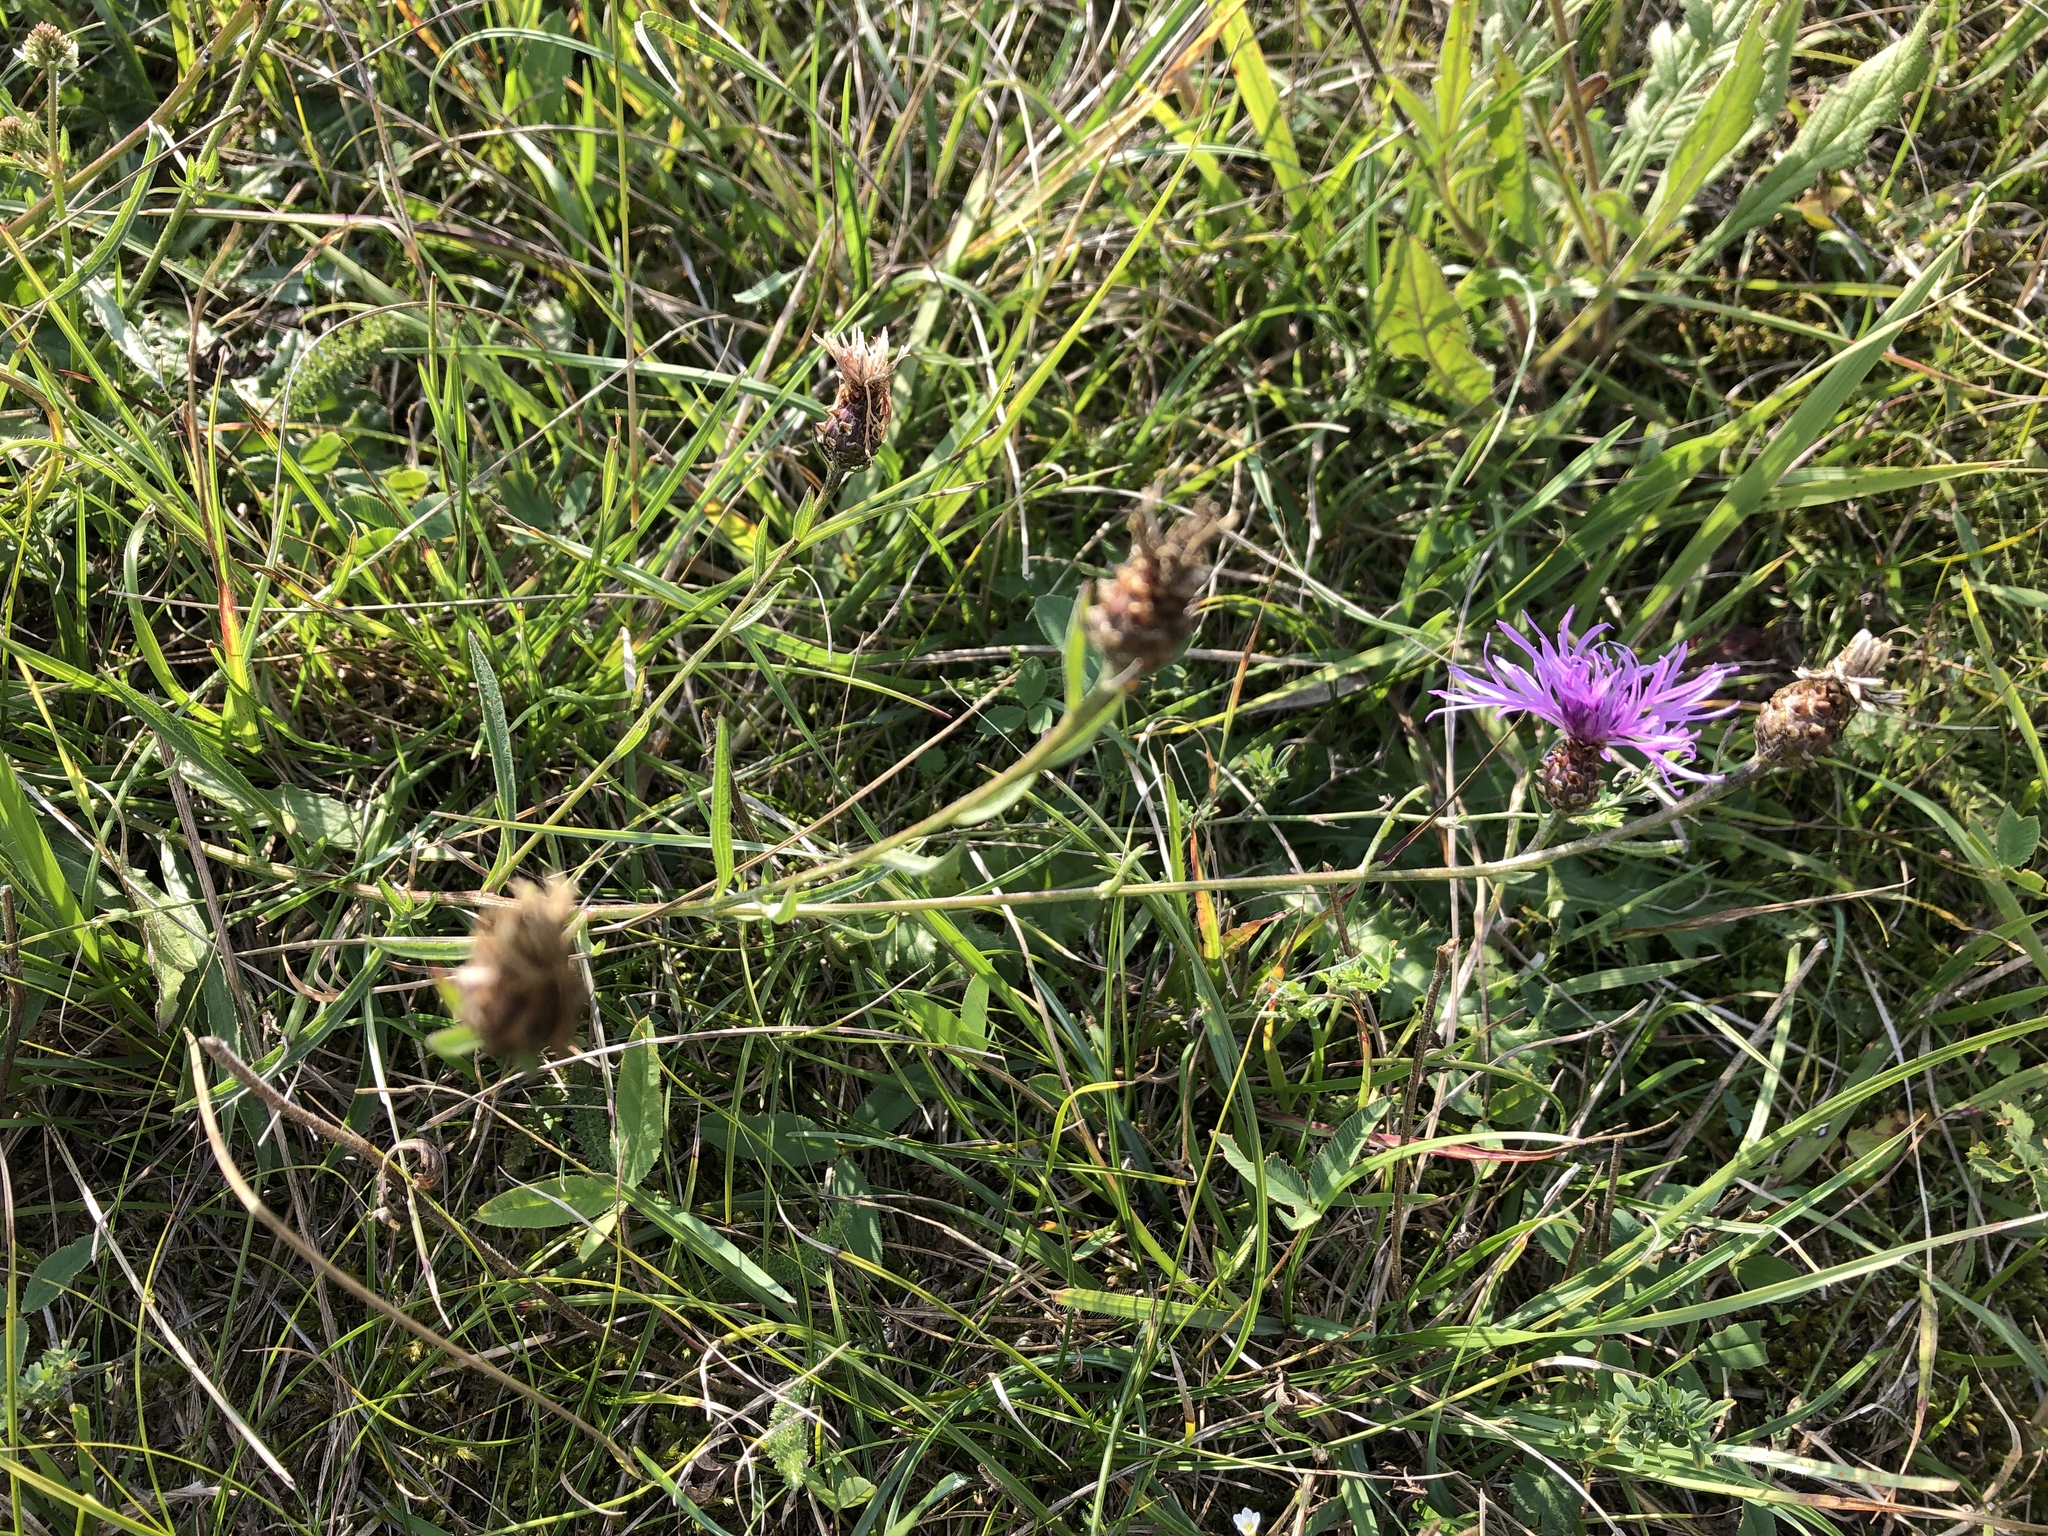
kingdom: Plantae
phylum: Tracheophyta
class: Magnoliopsida
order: Asterales
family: Asteraceae
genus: Centaurea
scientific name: Centaurea jacea
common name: Brown knapweed
